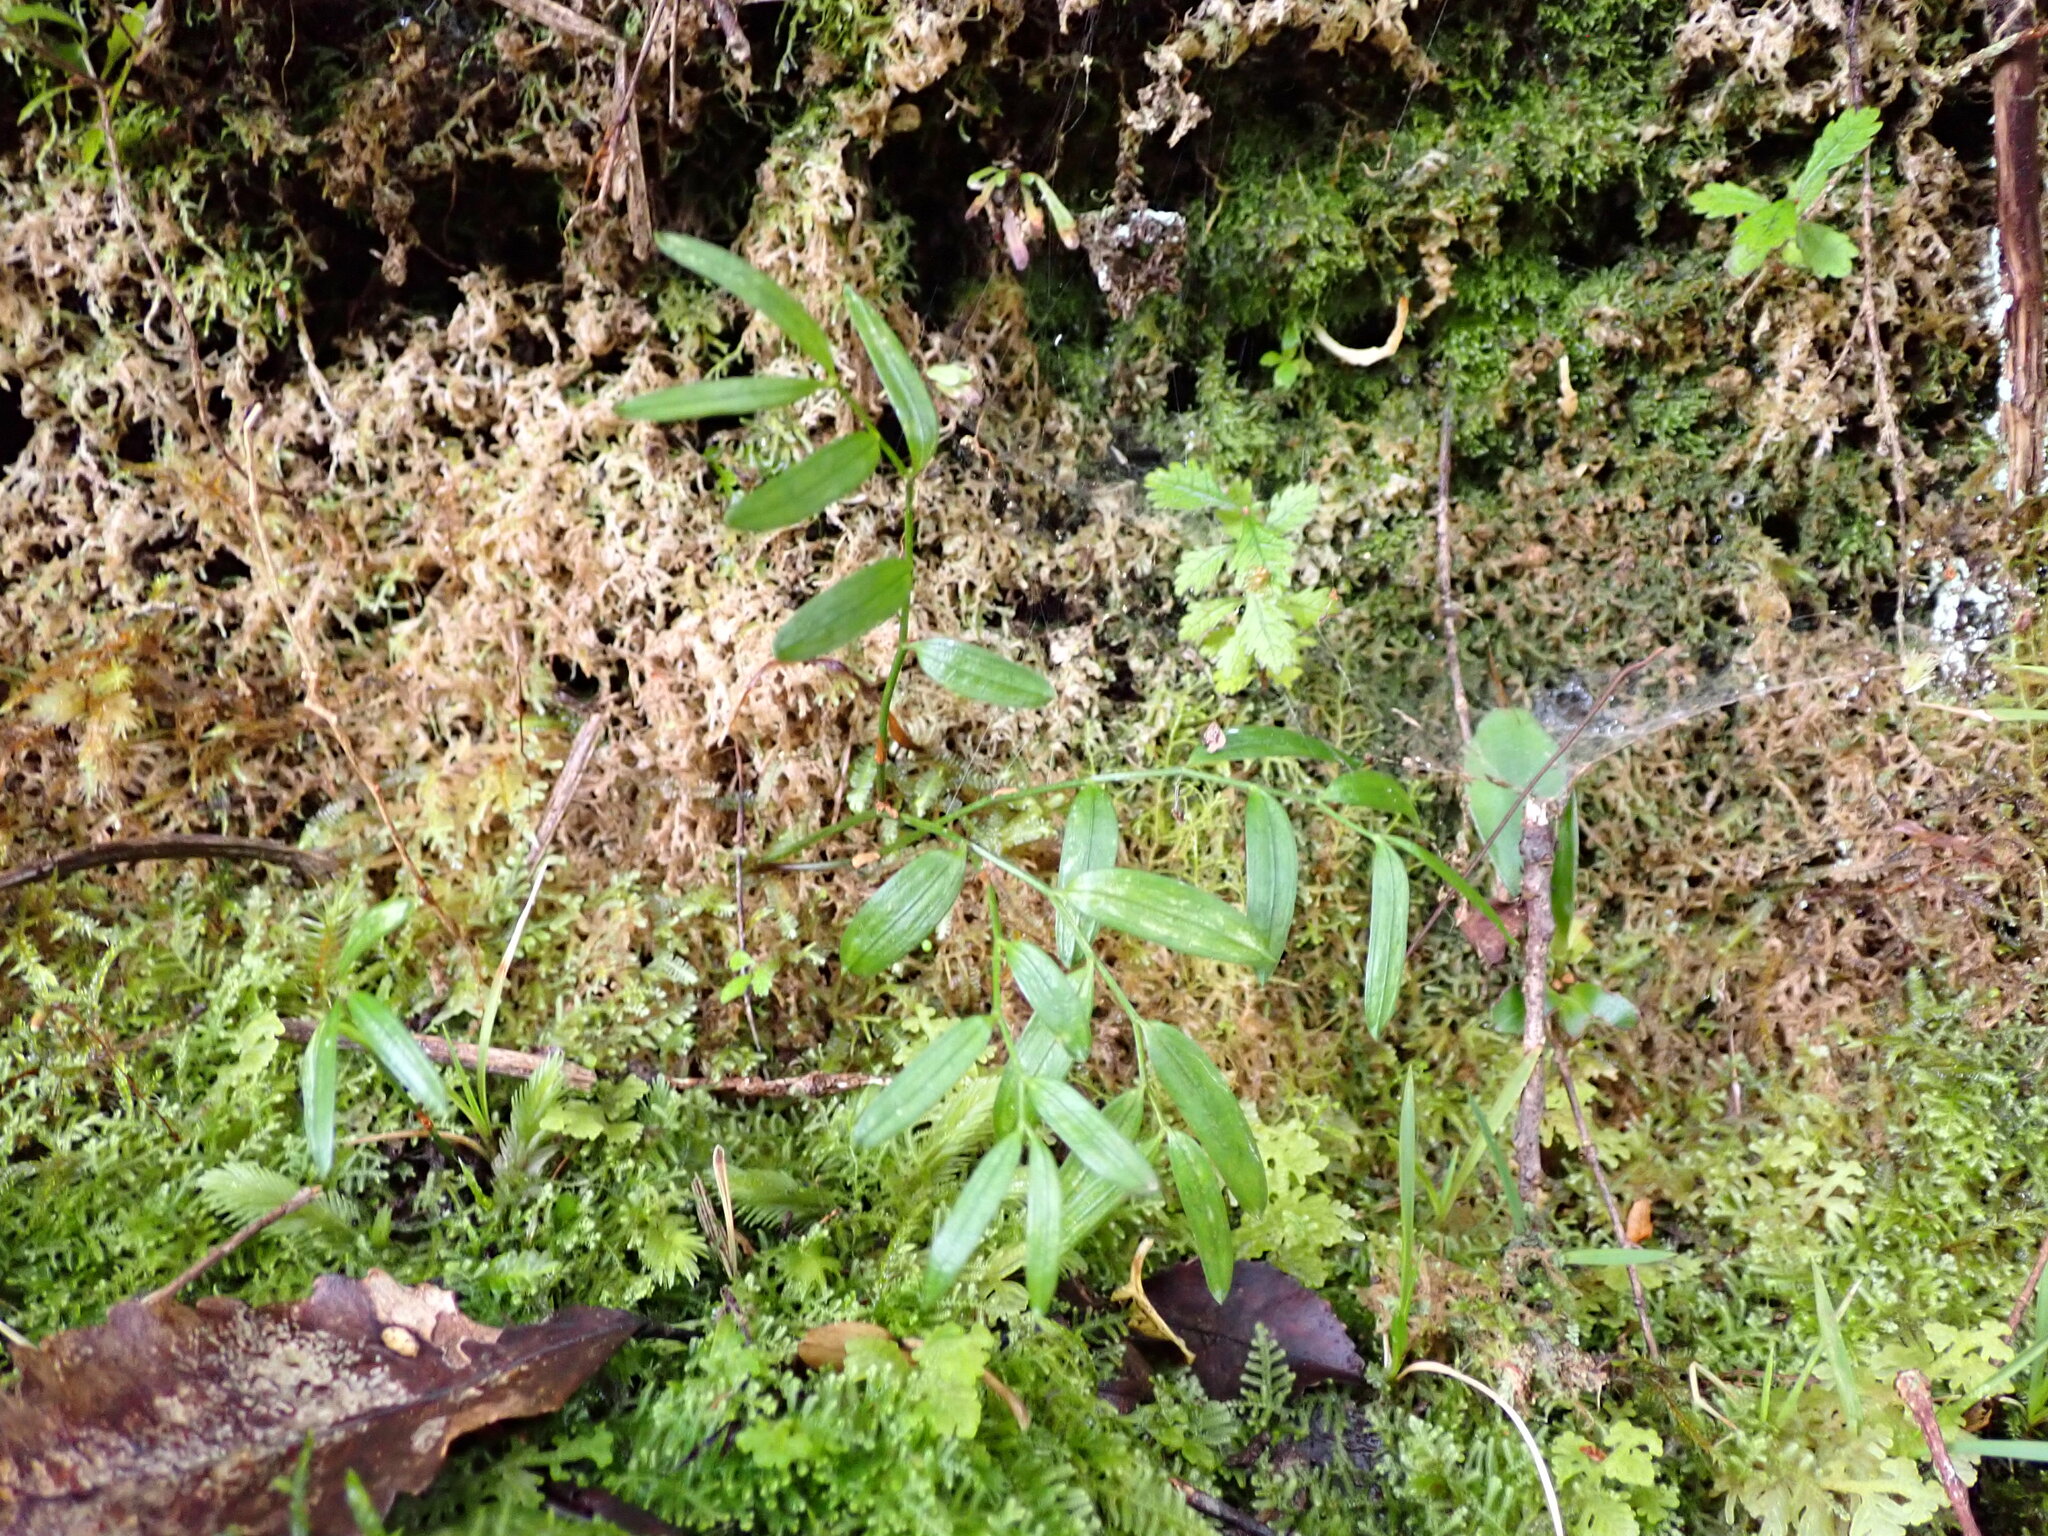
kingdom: Plantae
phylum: Tracheophyta
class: Liliopsida
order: Liliales
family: Alstroemeriaceae
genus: Luzuriaga
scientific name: Luzuriaga parviflora
